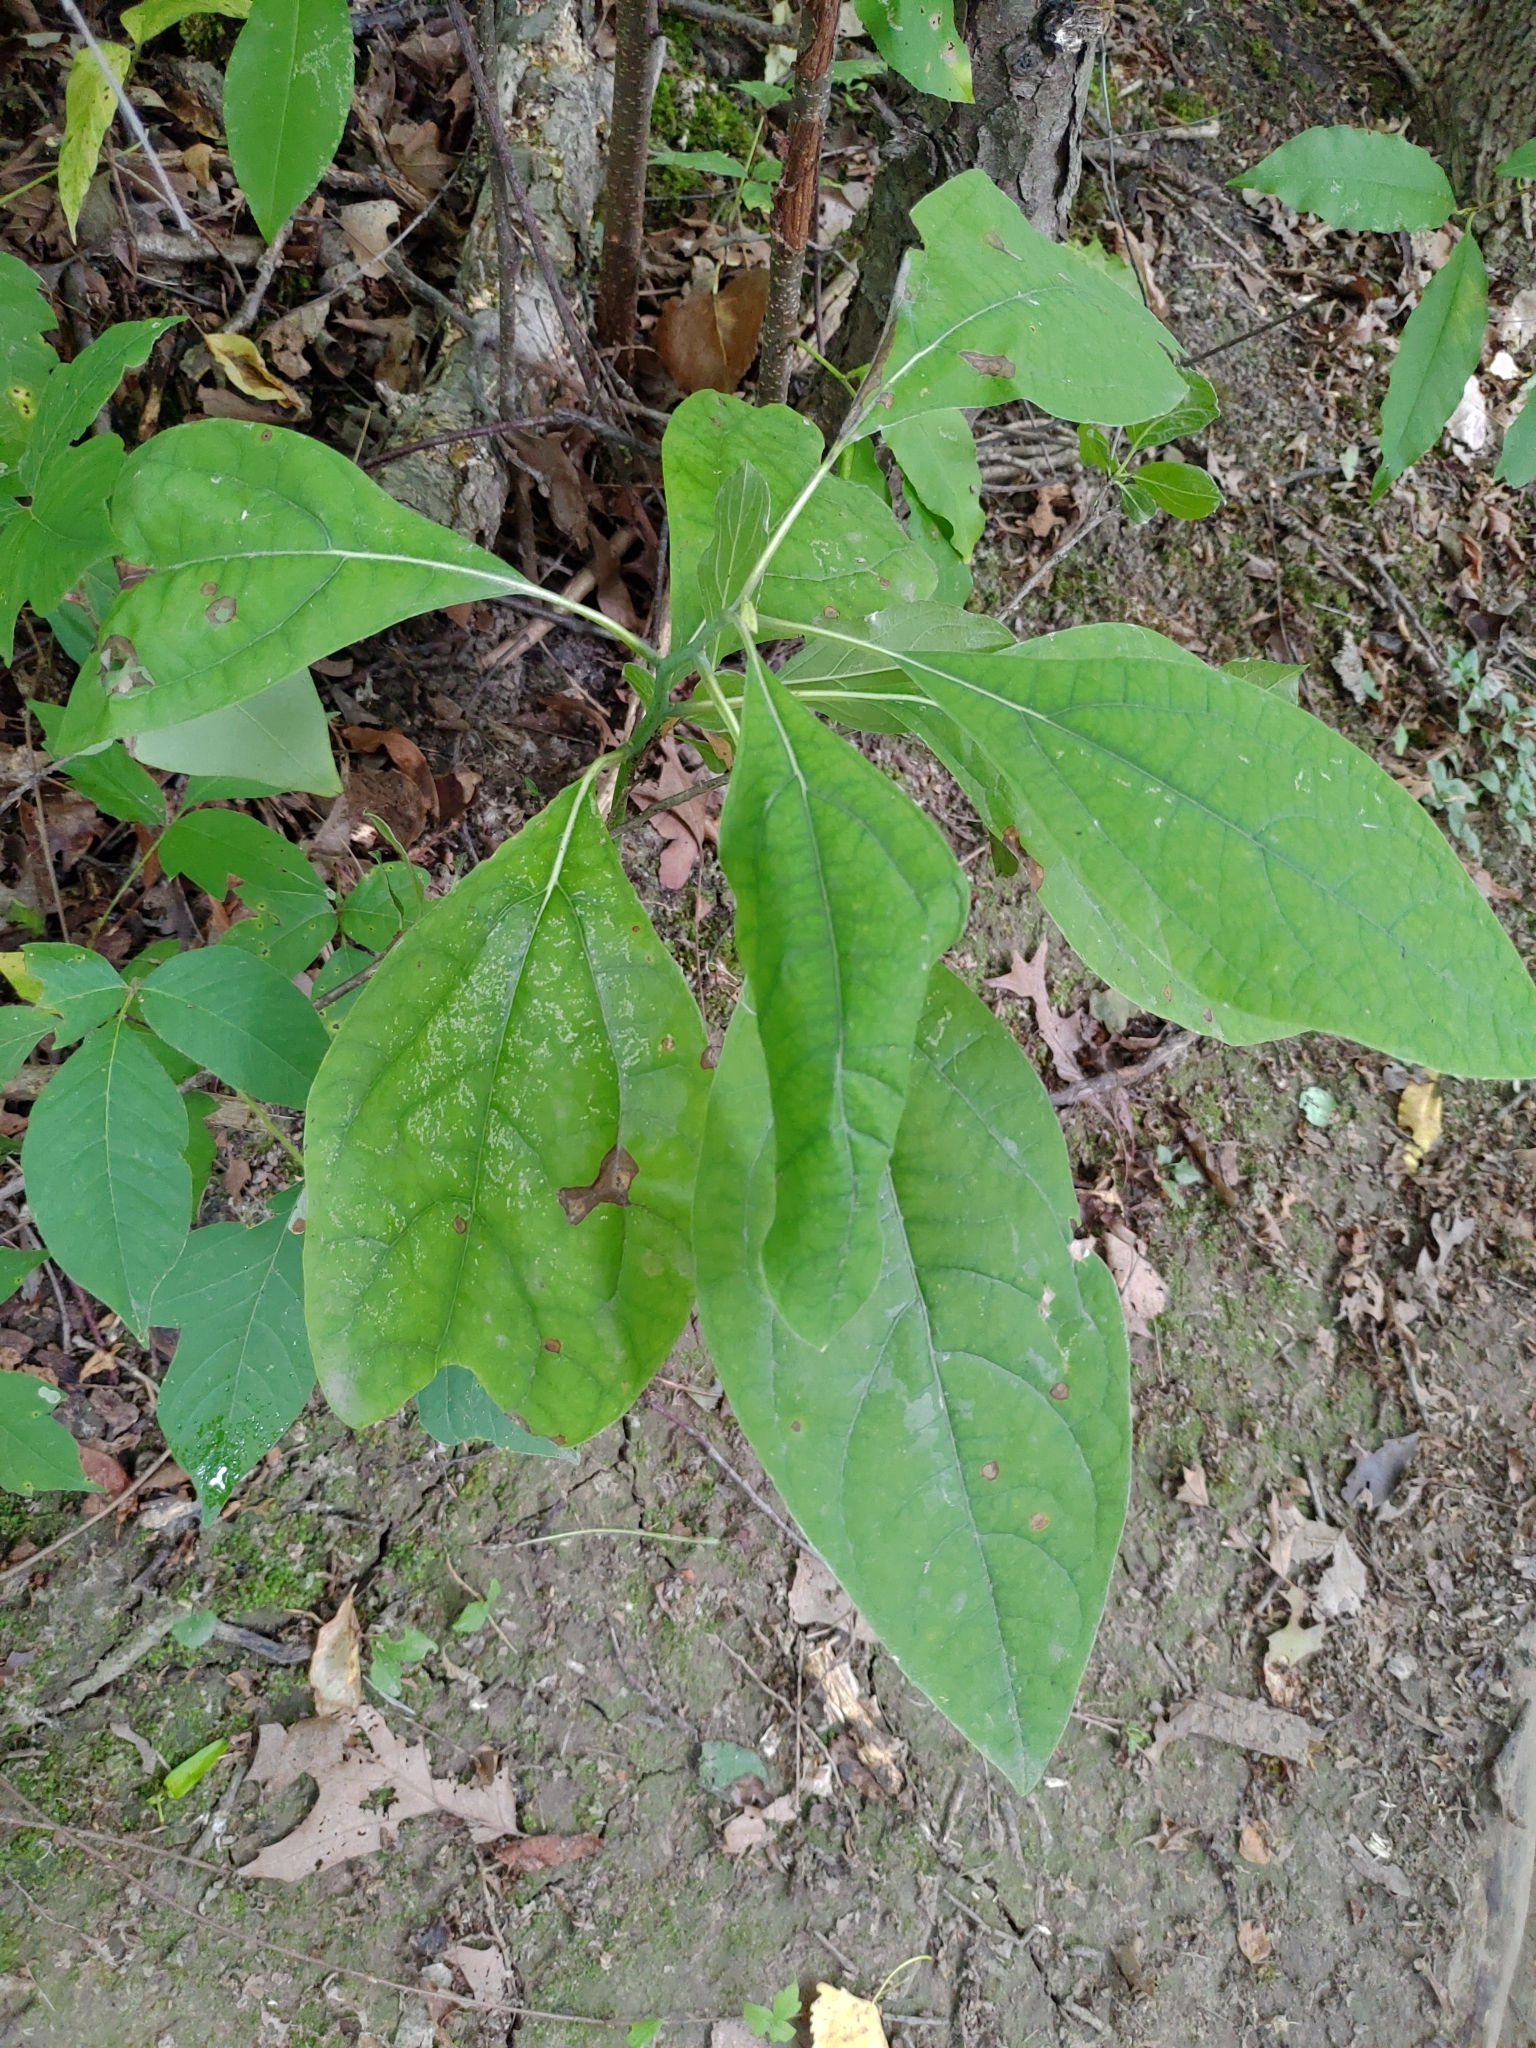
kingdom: Plantae
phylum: Tracheophyta
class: Magnoliopsida
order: Laurales
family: Lauraceae
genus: Sassafras
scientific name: Sassafras albidum
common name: Sassafras
